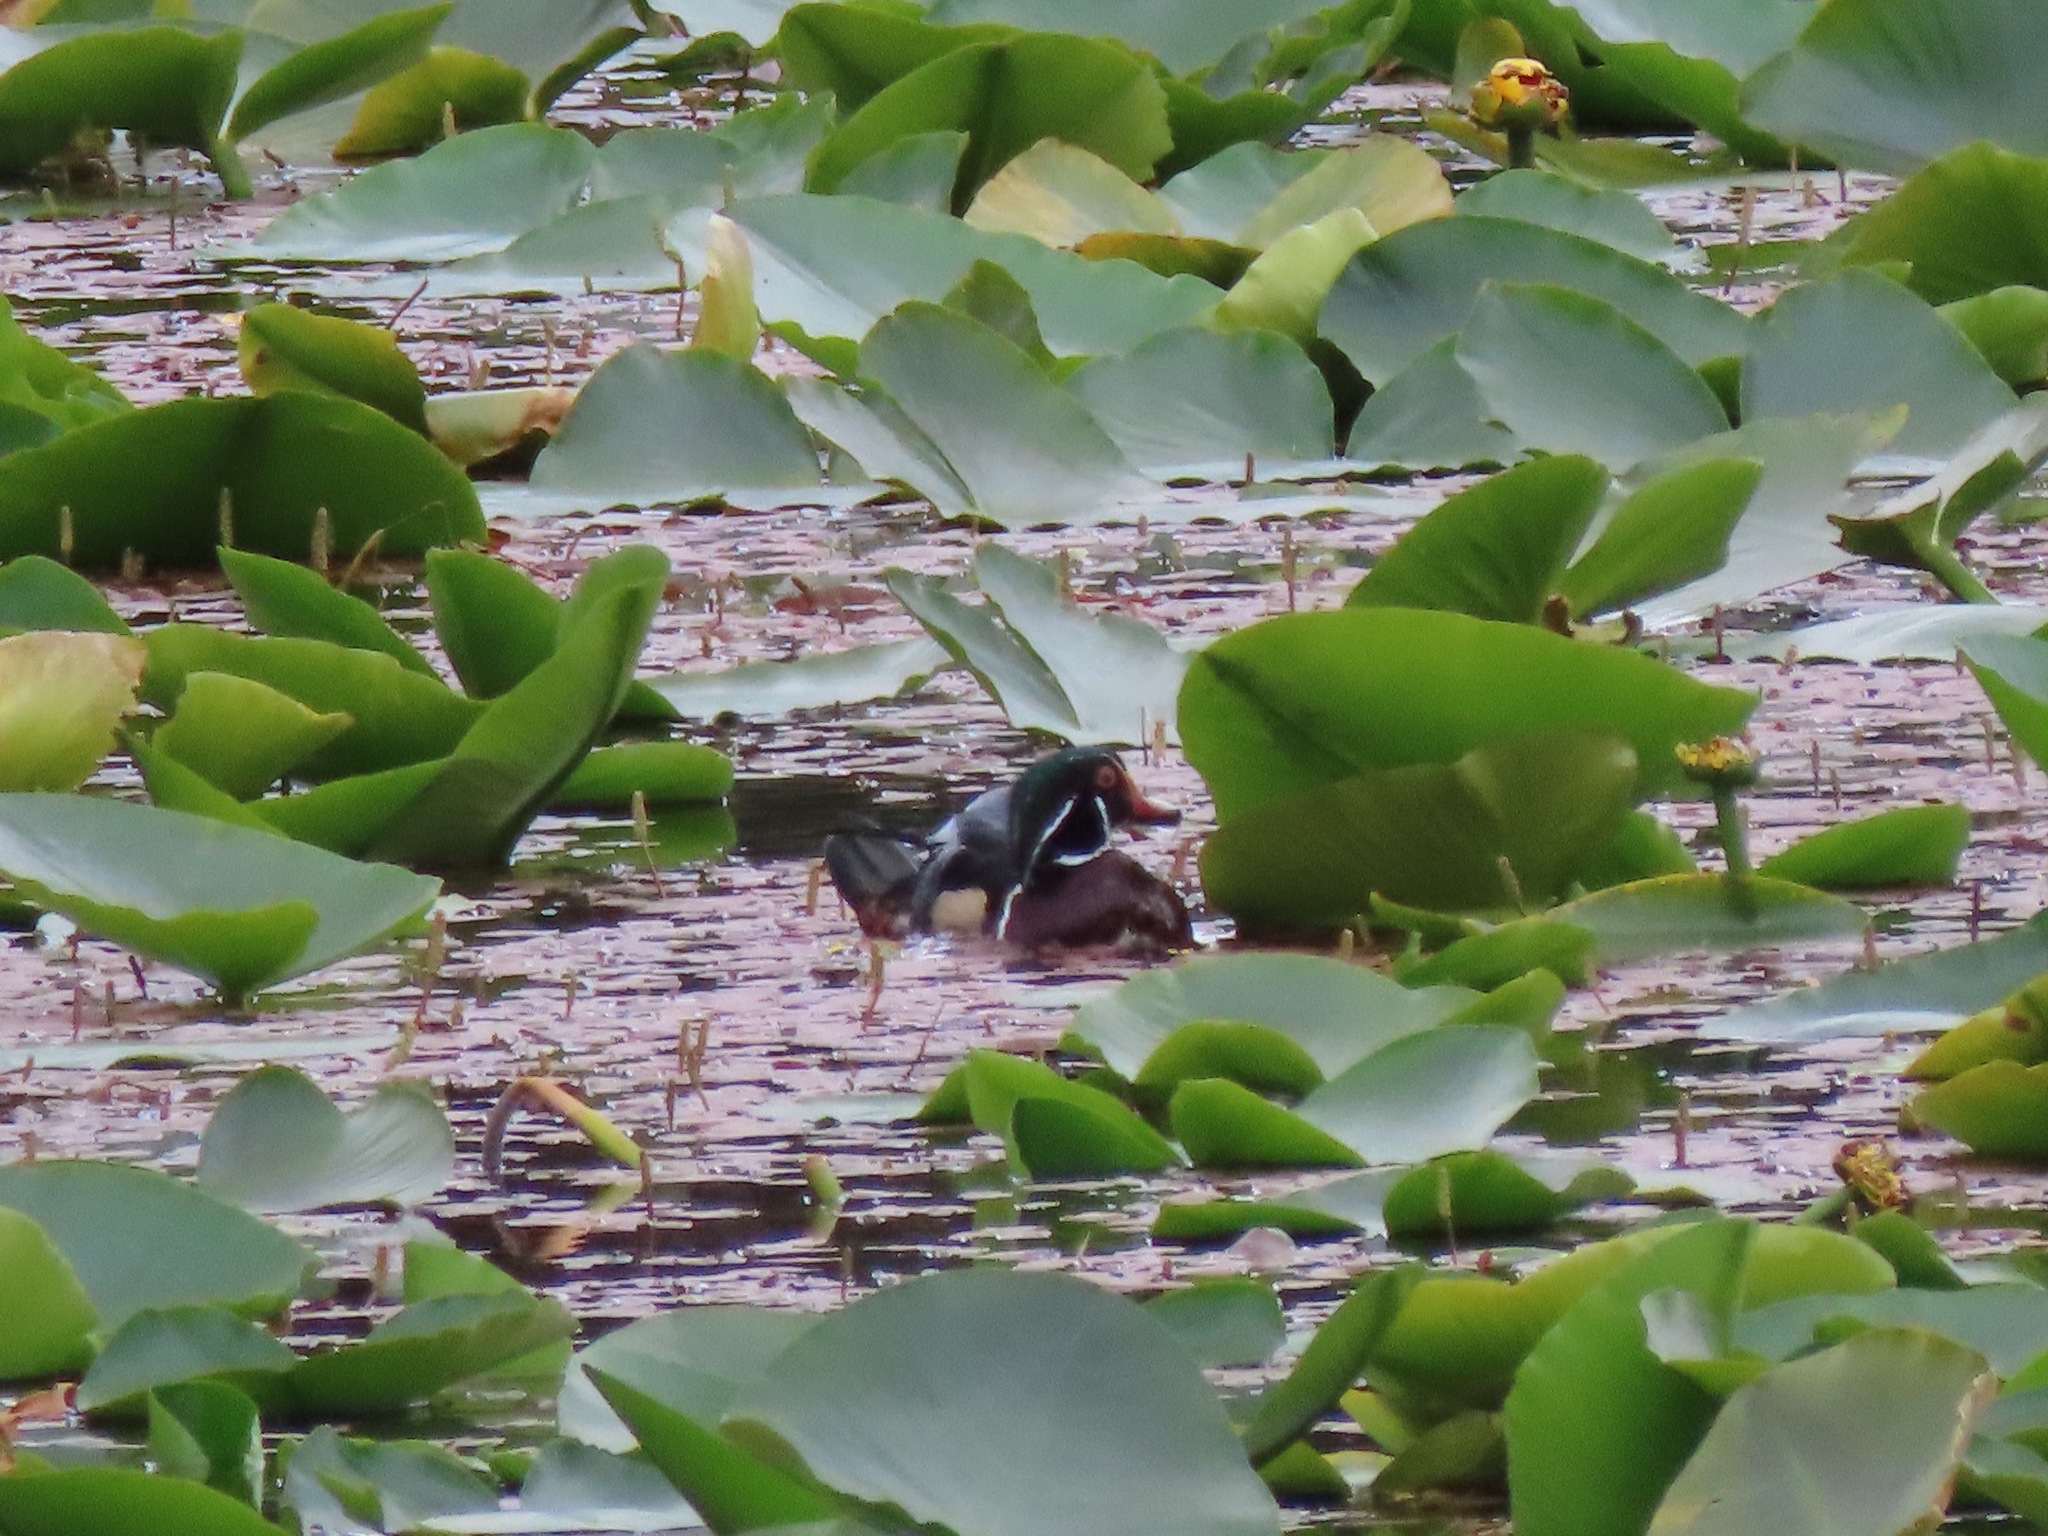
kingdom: Animalia
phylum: Chordata
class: Aves
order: Anseriformes
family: Anatidae
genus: Aix
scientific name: Aix sponsa
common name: Wood duck
